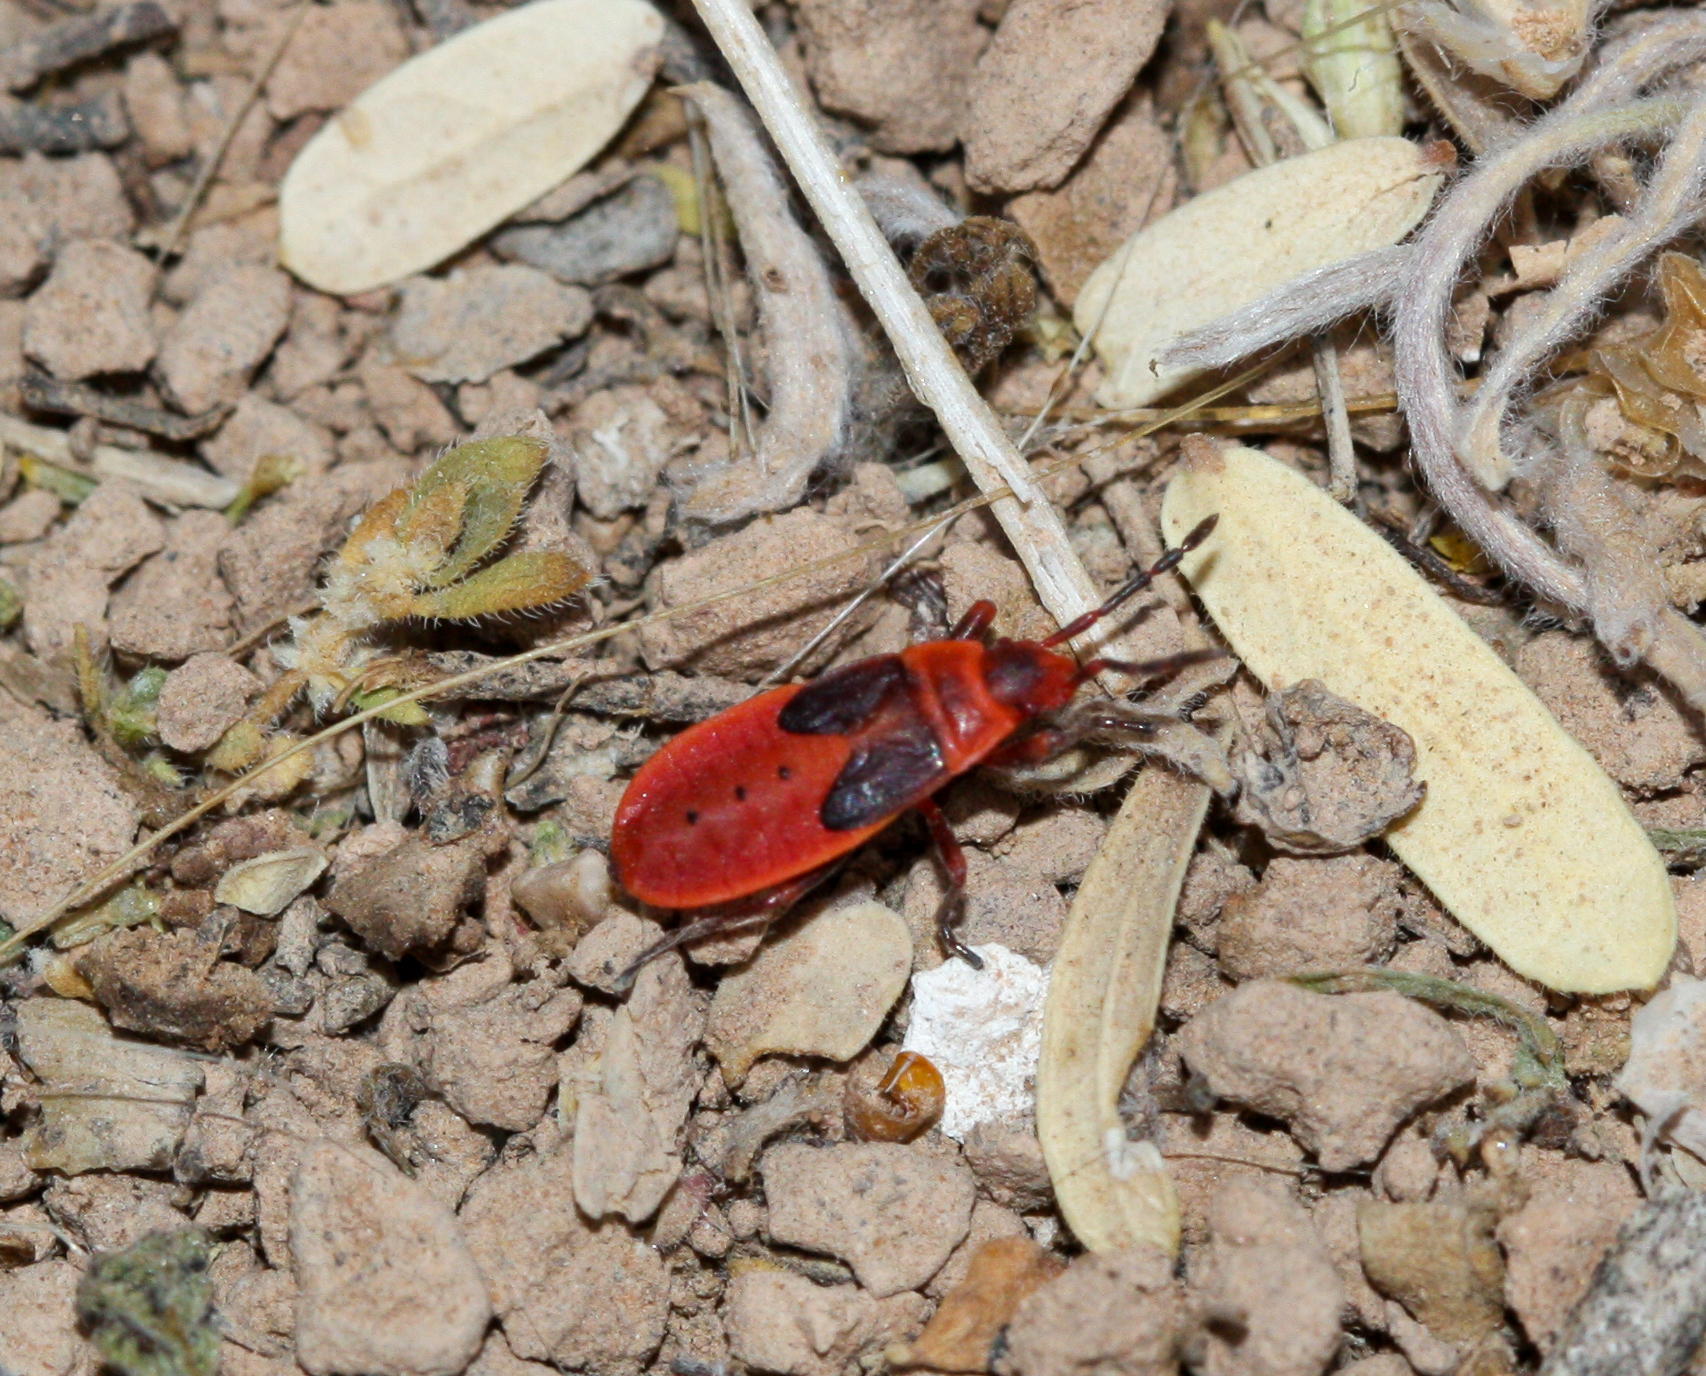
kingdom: Animalia
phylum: Arthropoda
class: Insecta
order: Hemiptera
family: Pyrrhocoridae
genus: Scantius
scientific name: Scantius aegyptius
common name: Red bug
